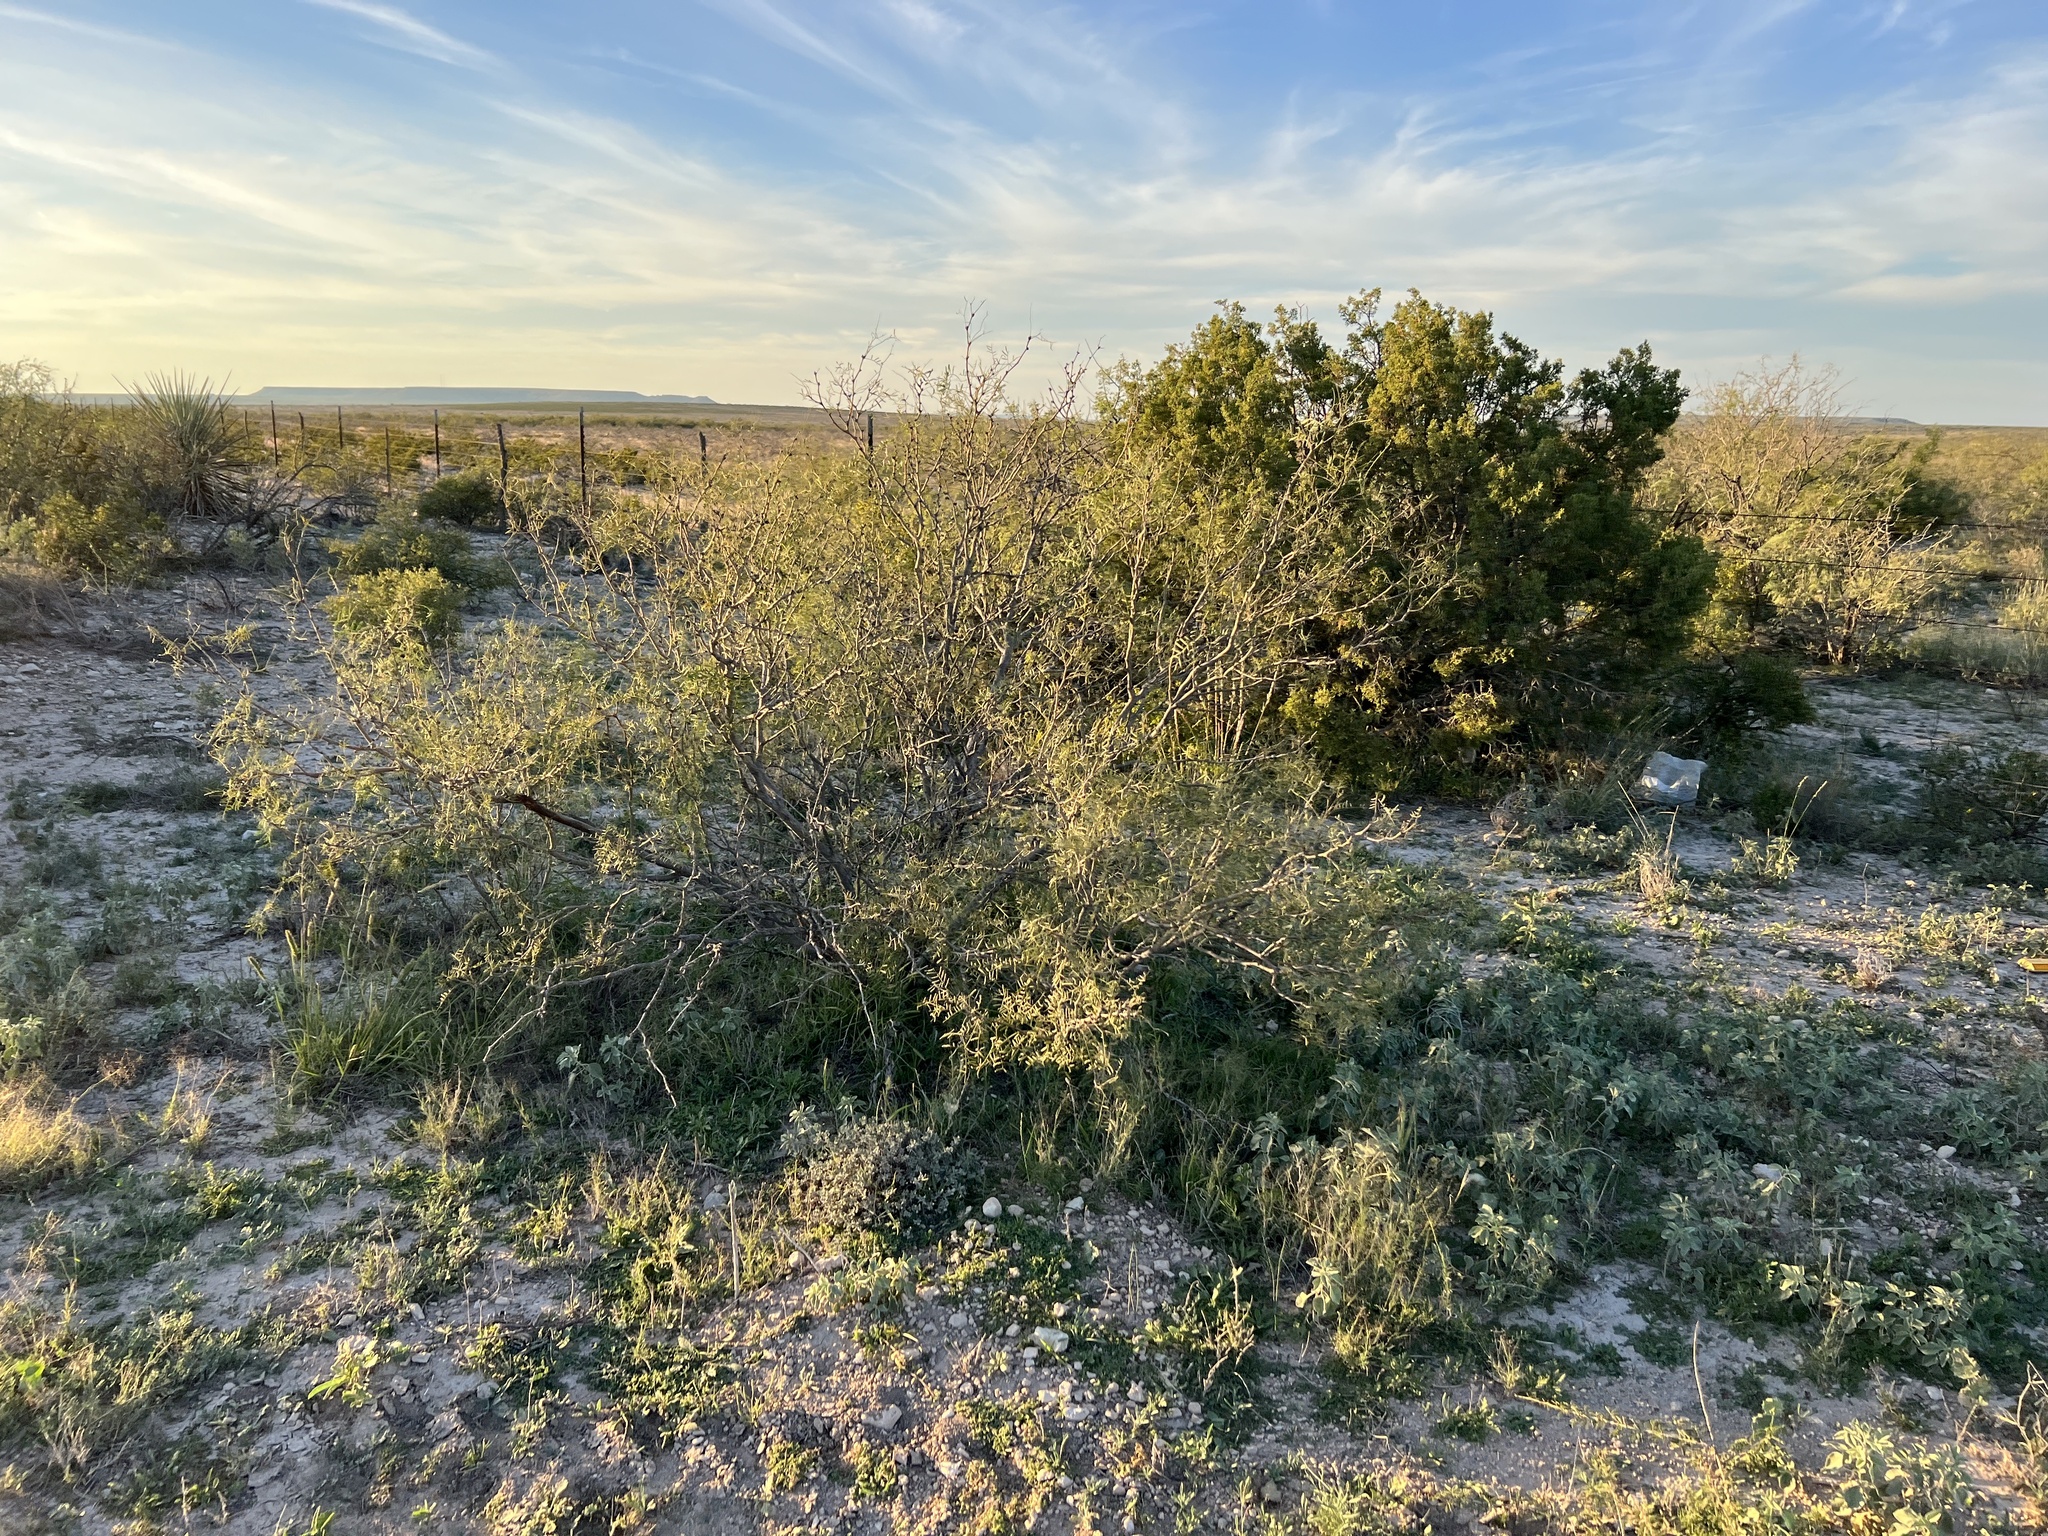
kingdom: Plantae
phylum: Tracheophyta
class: Magnoliopsida
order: Fabales
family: Fabaceae
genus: Prosopis
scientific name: Prosopis glandulosa
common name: Honey mesquite
